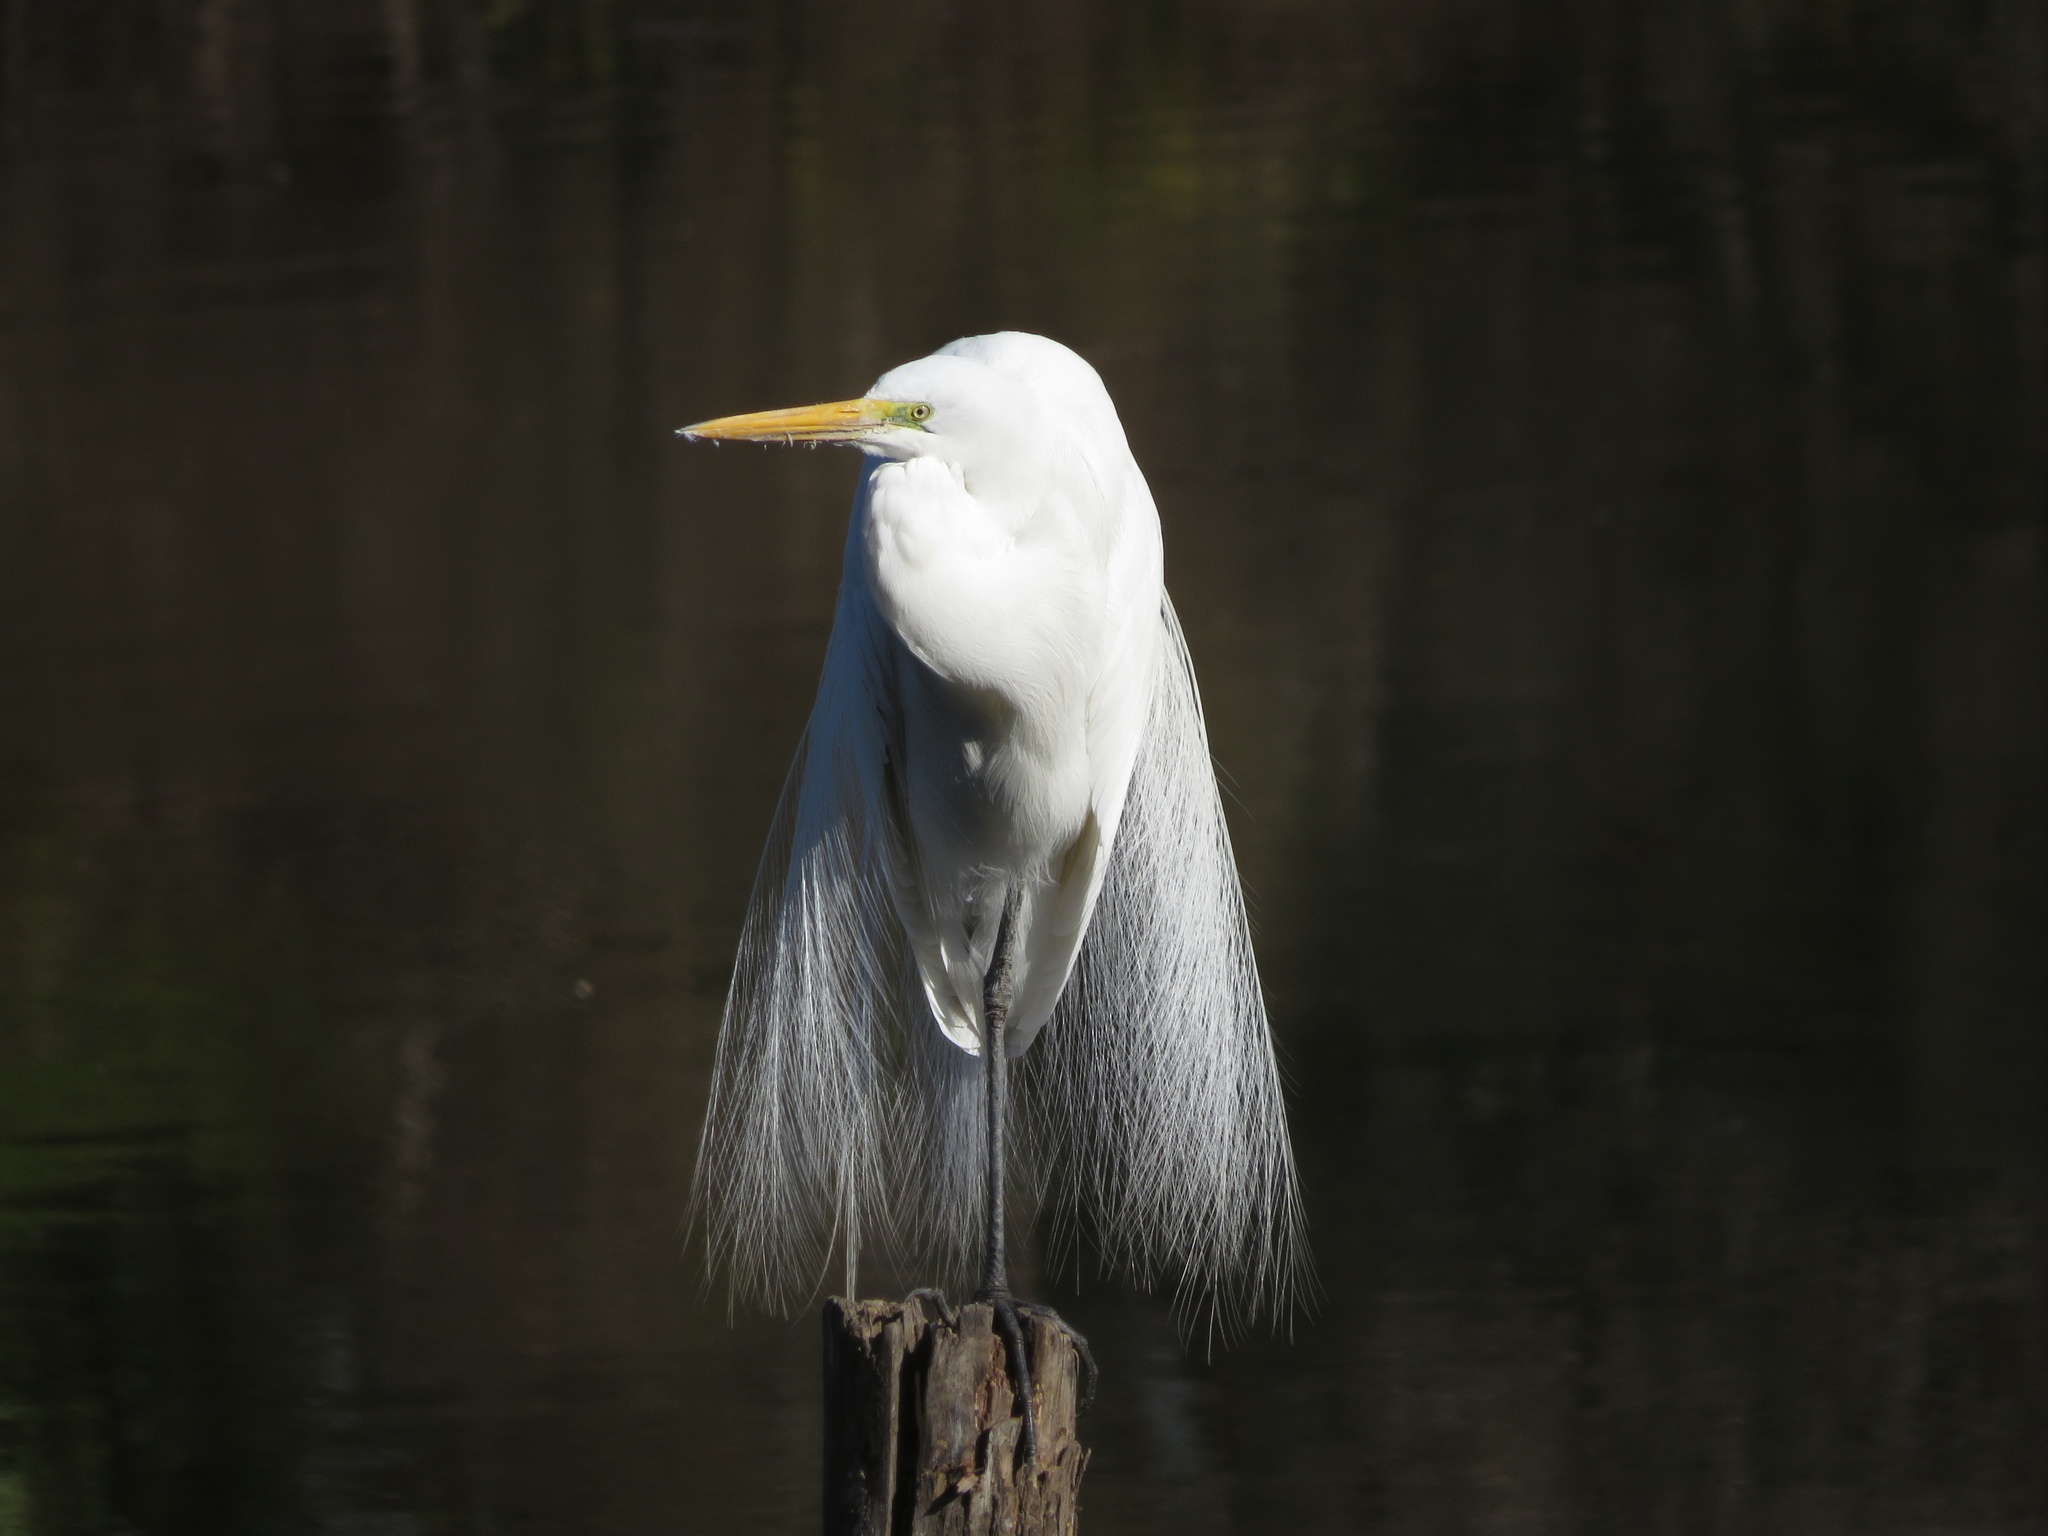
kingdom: Animalia
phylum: Chordata
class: Aves
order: Pelecaniformes
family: Ardeidae
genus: Ardea
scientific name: Ardea alba
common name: Great egret
